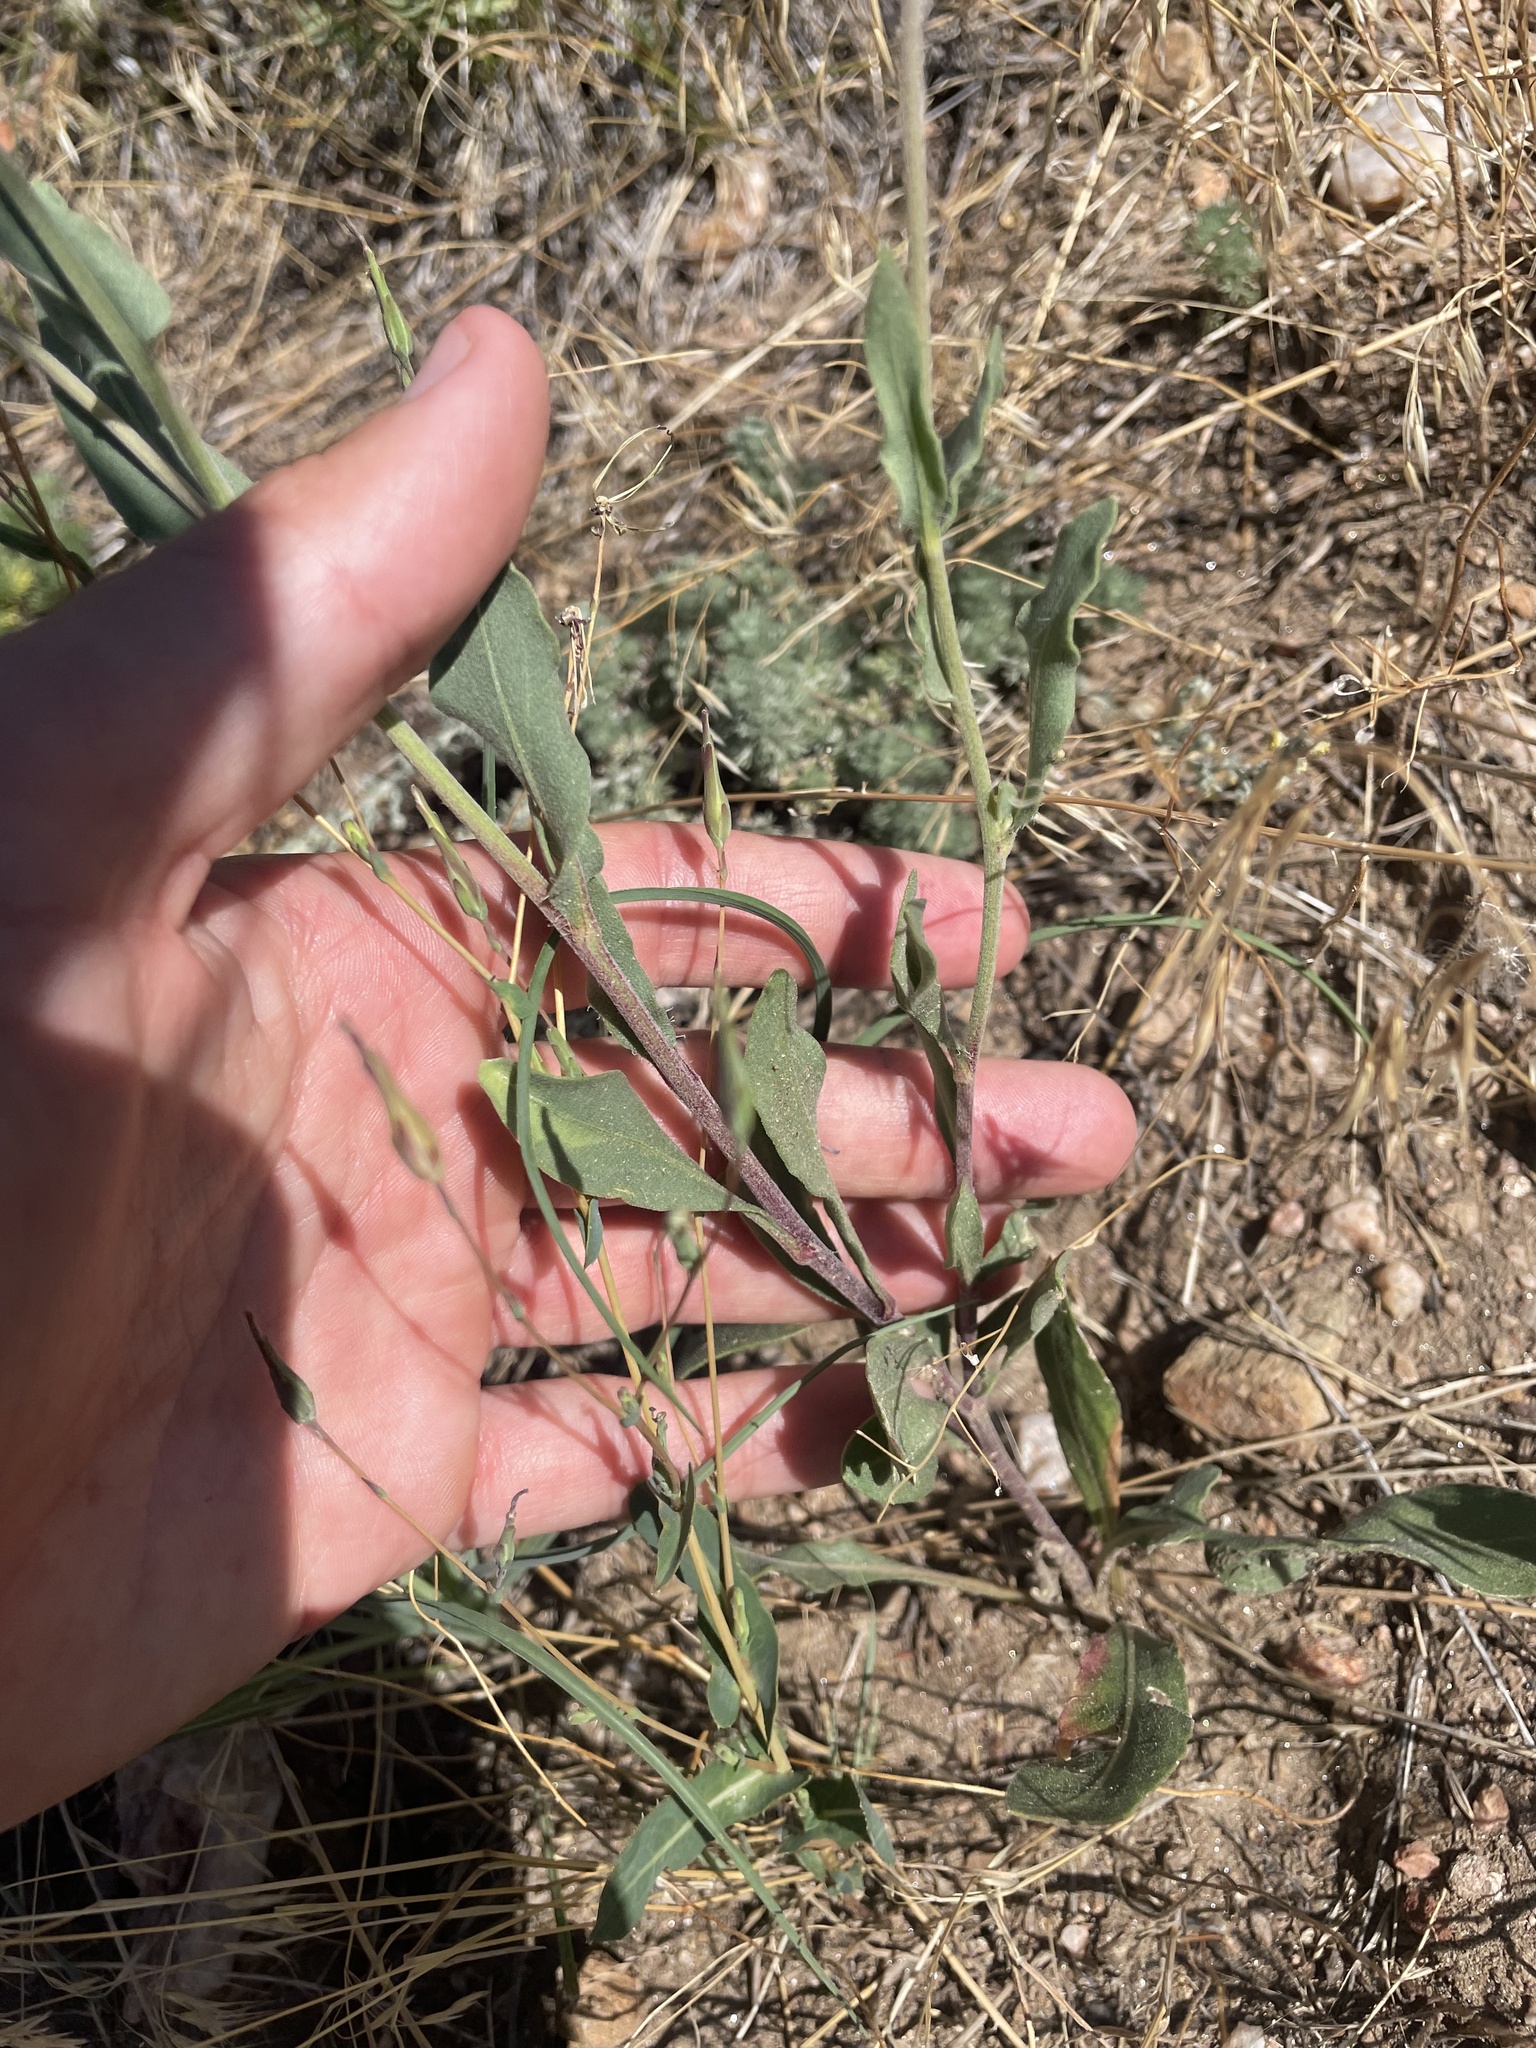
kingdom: Plantae
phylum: Tracheophyta
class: Magnoliopsida
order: Asterales
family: Asteraceae
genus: Gaillardia
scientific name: Gaillardia aristata
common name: Blanket-flower
